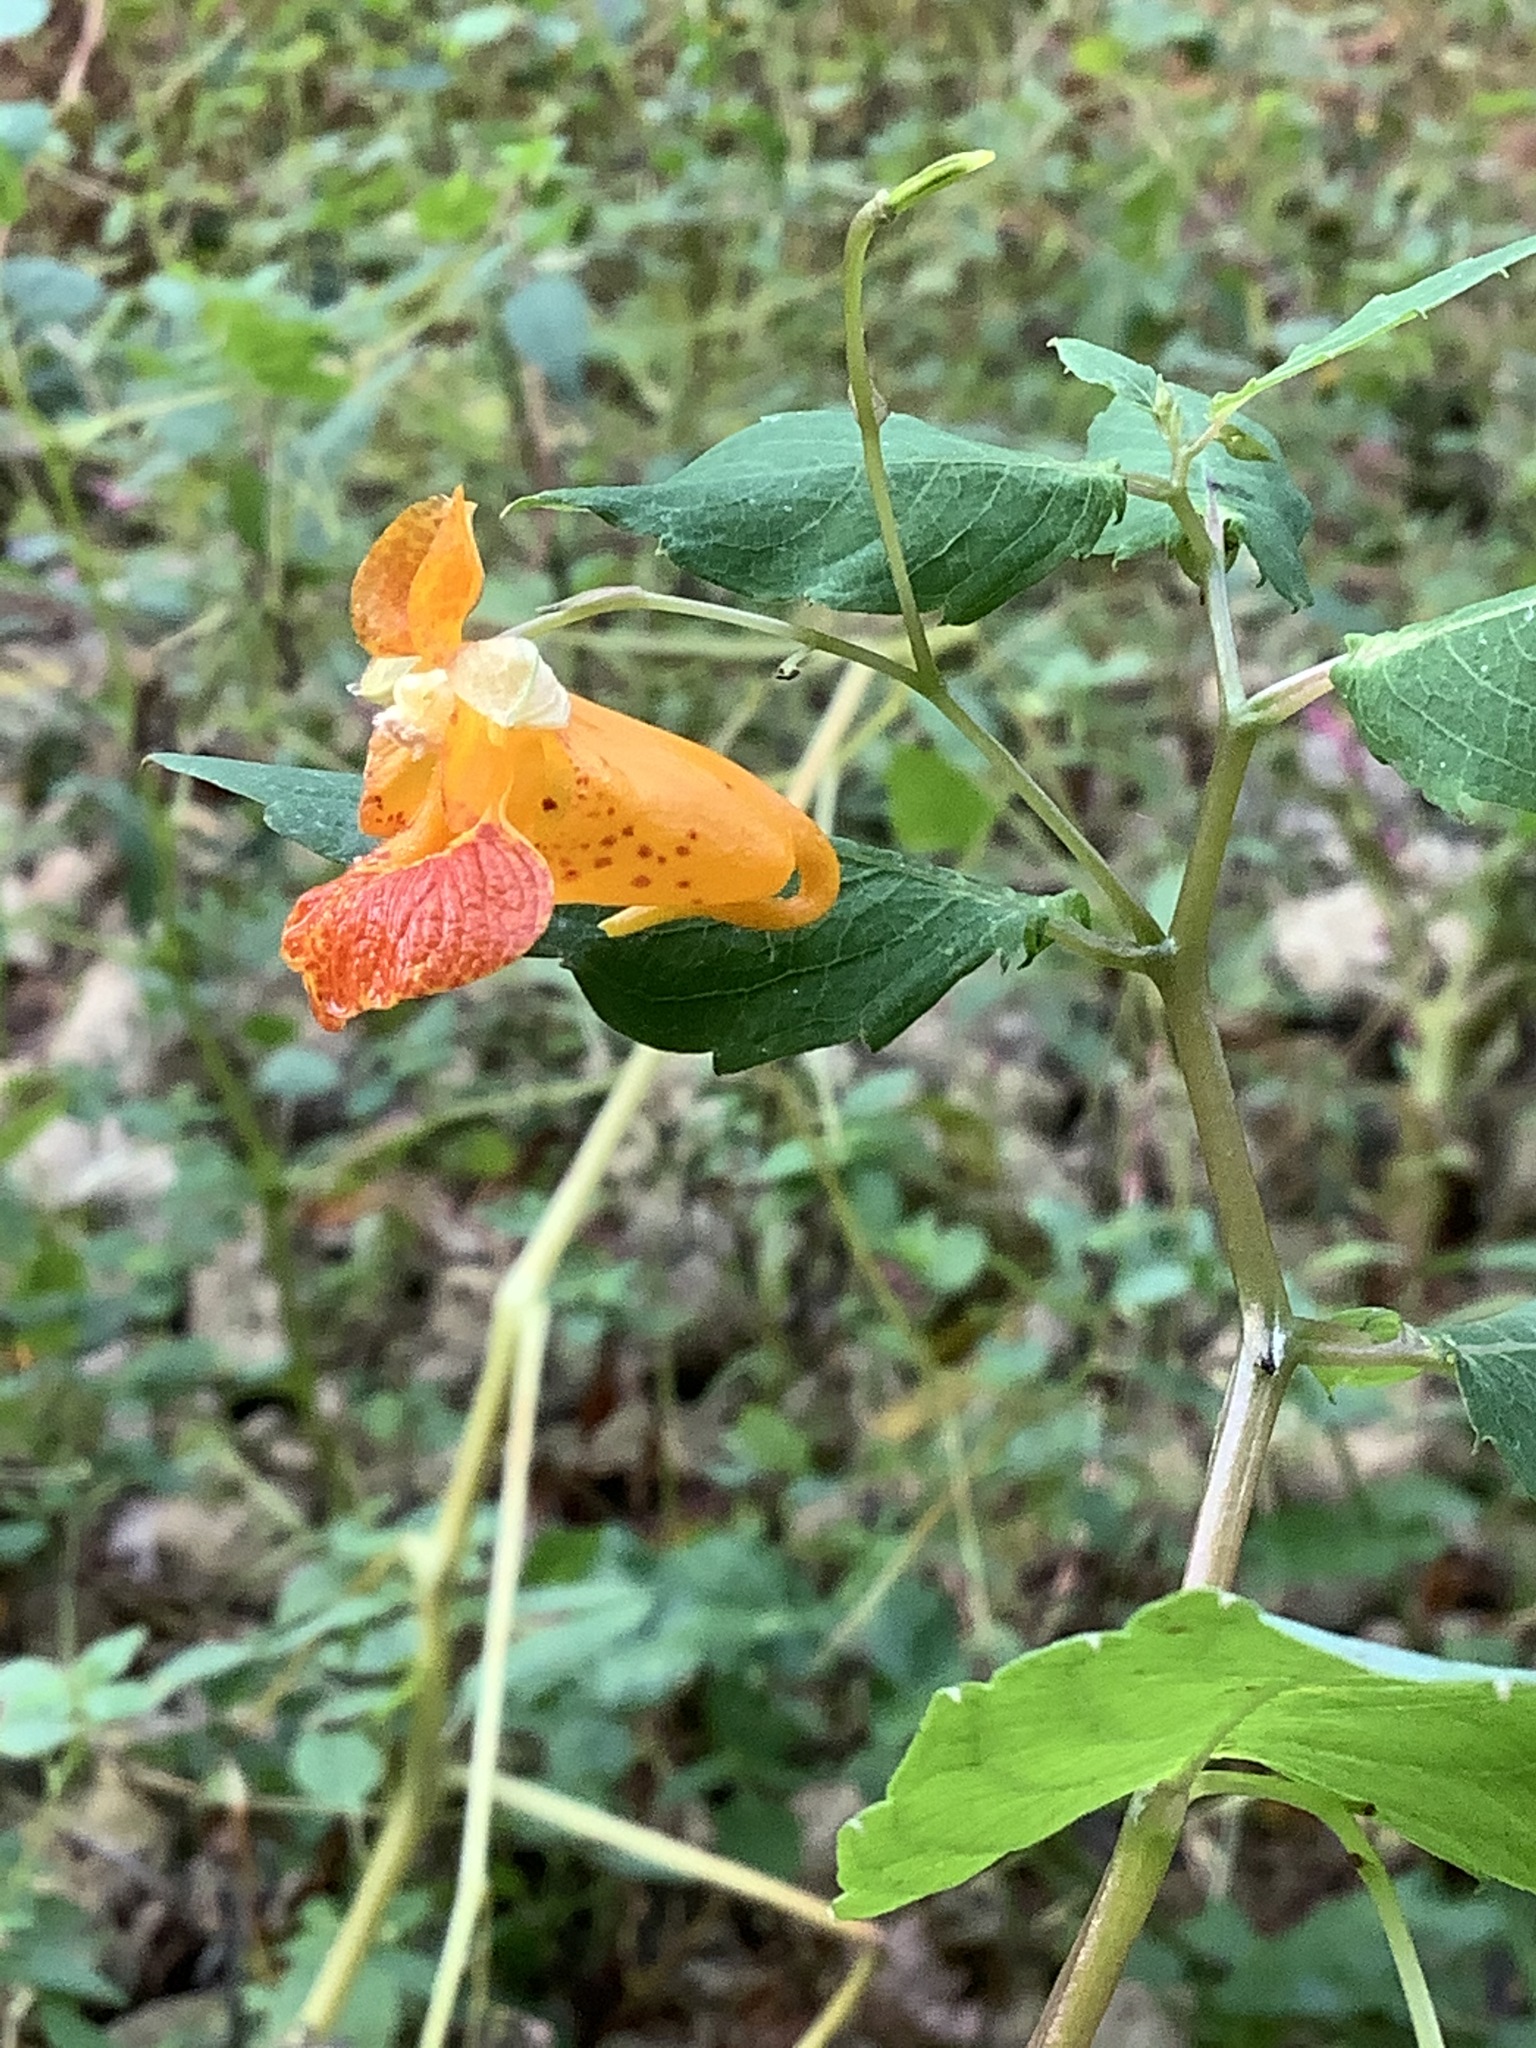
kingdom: Plantae
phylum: Tracheophyta
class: Magnoliopsida
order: Ericales
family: Balsaminaceae
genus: Impatiens
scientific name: Impatiens capensis
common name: Orange balsam
